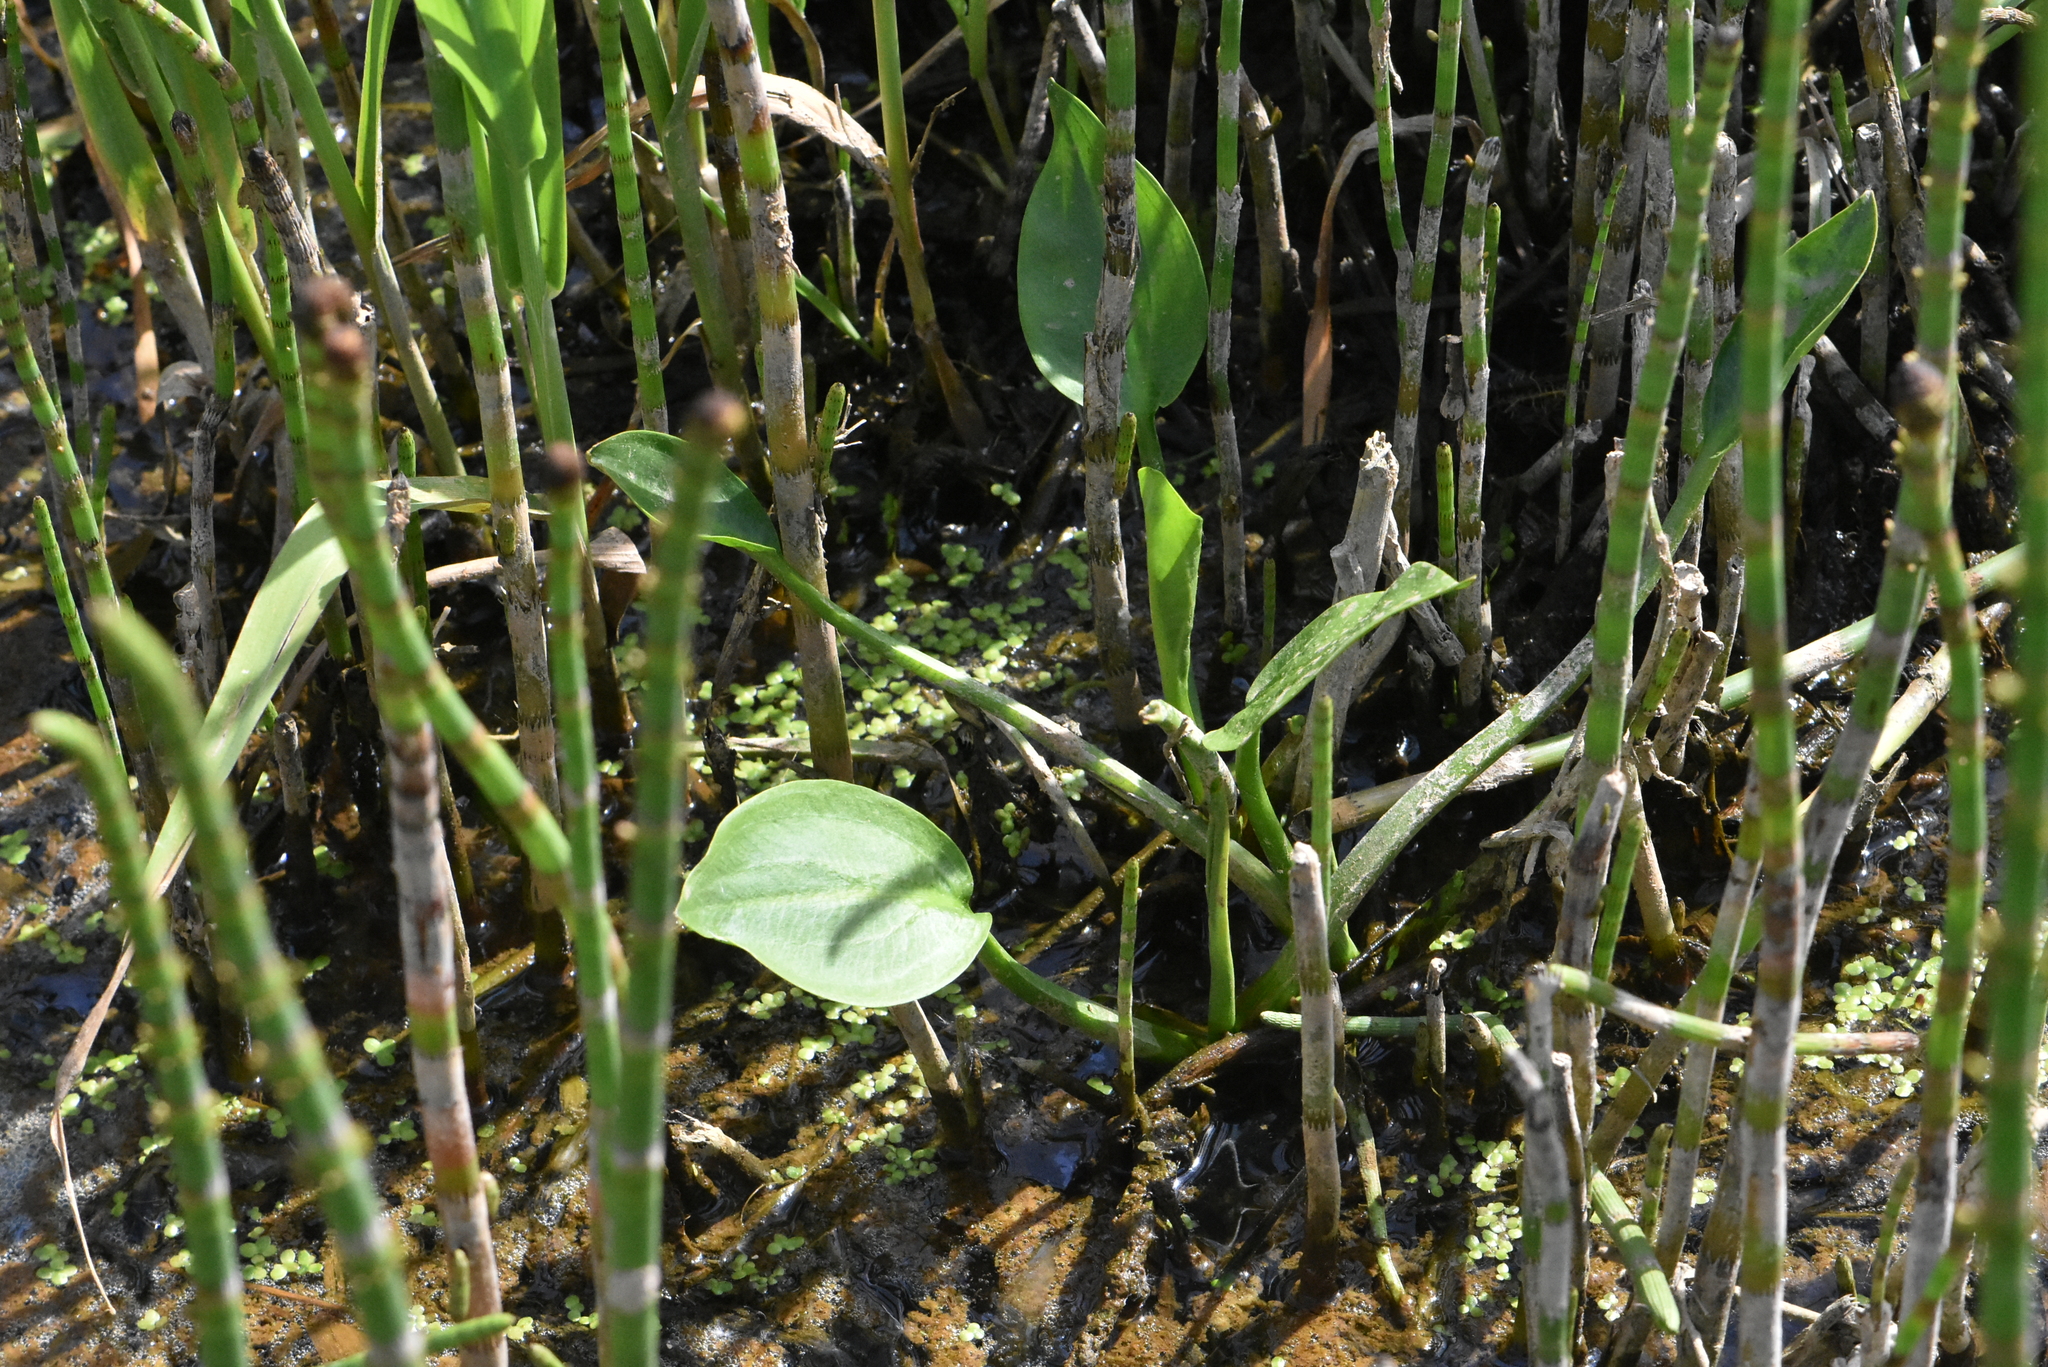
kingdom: Plantae
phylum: Tracheophyta
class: Liliopsida
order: Alismatales
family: Alismataceae
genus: Alisma
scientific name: Alisma plantago-aquatica
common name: Water-plantain
